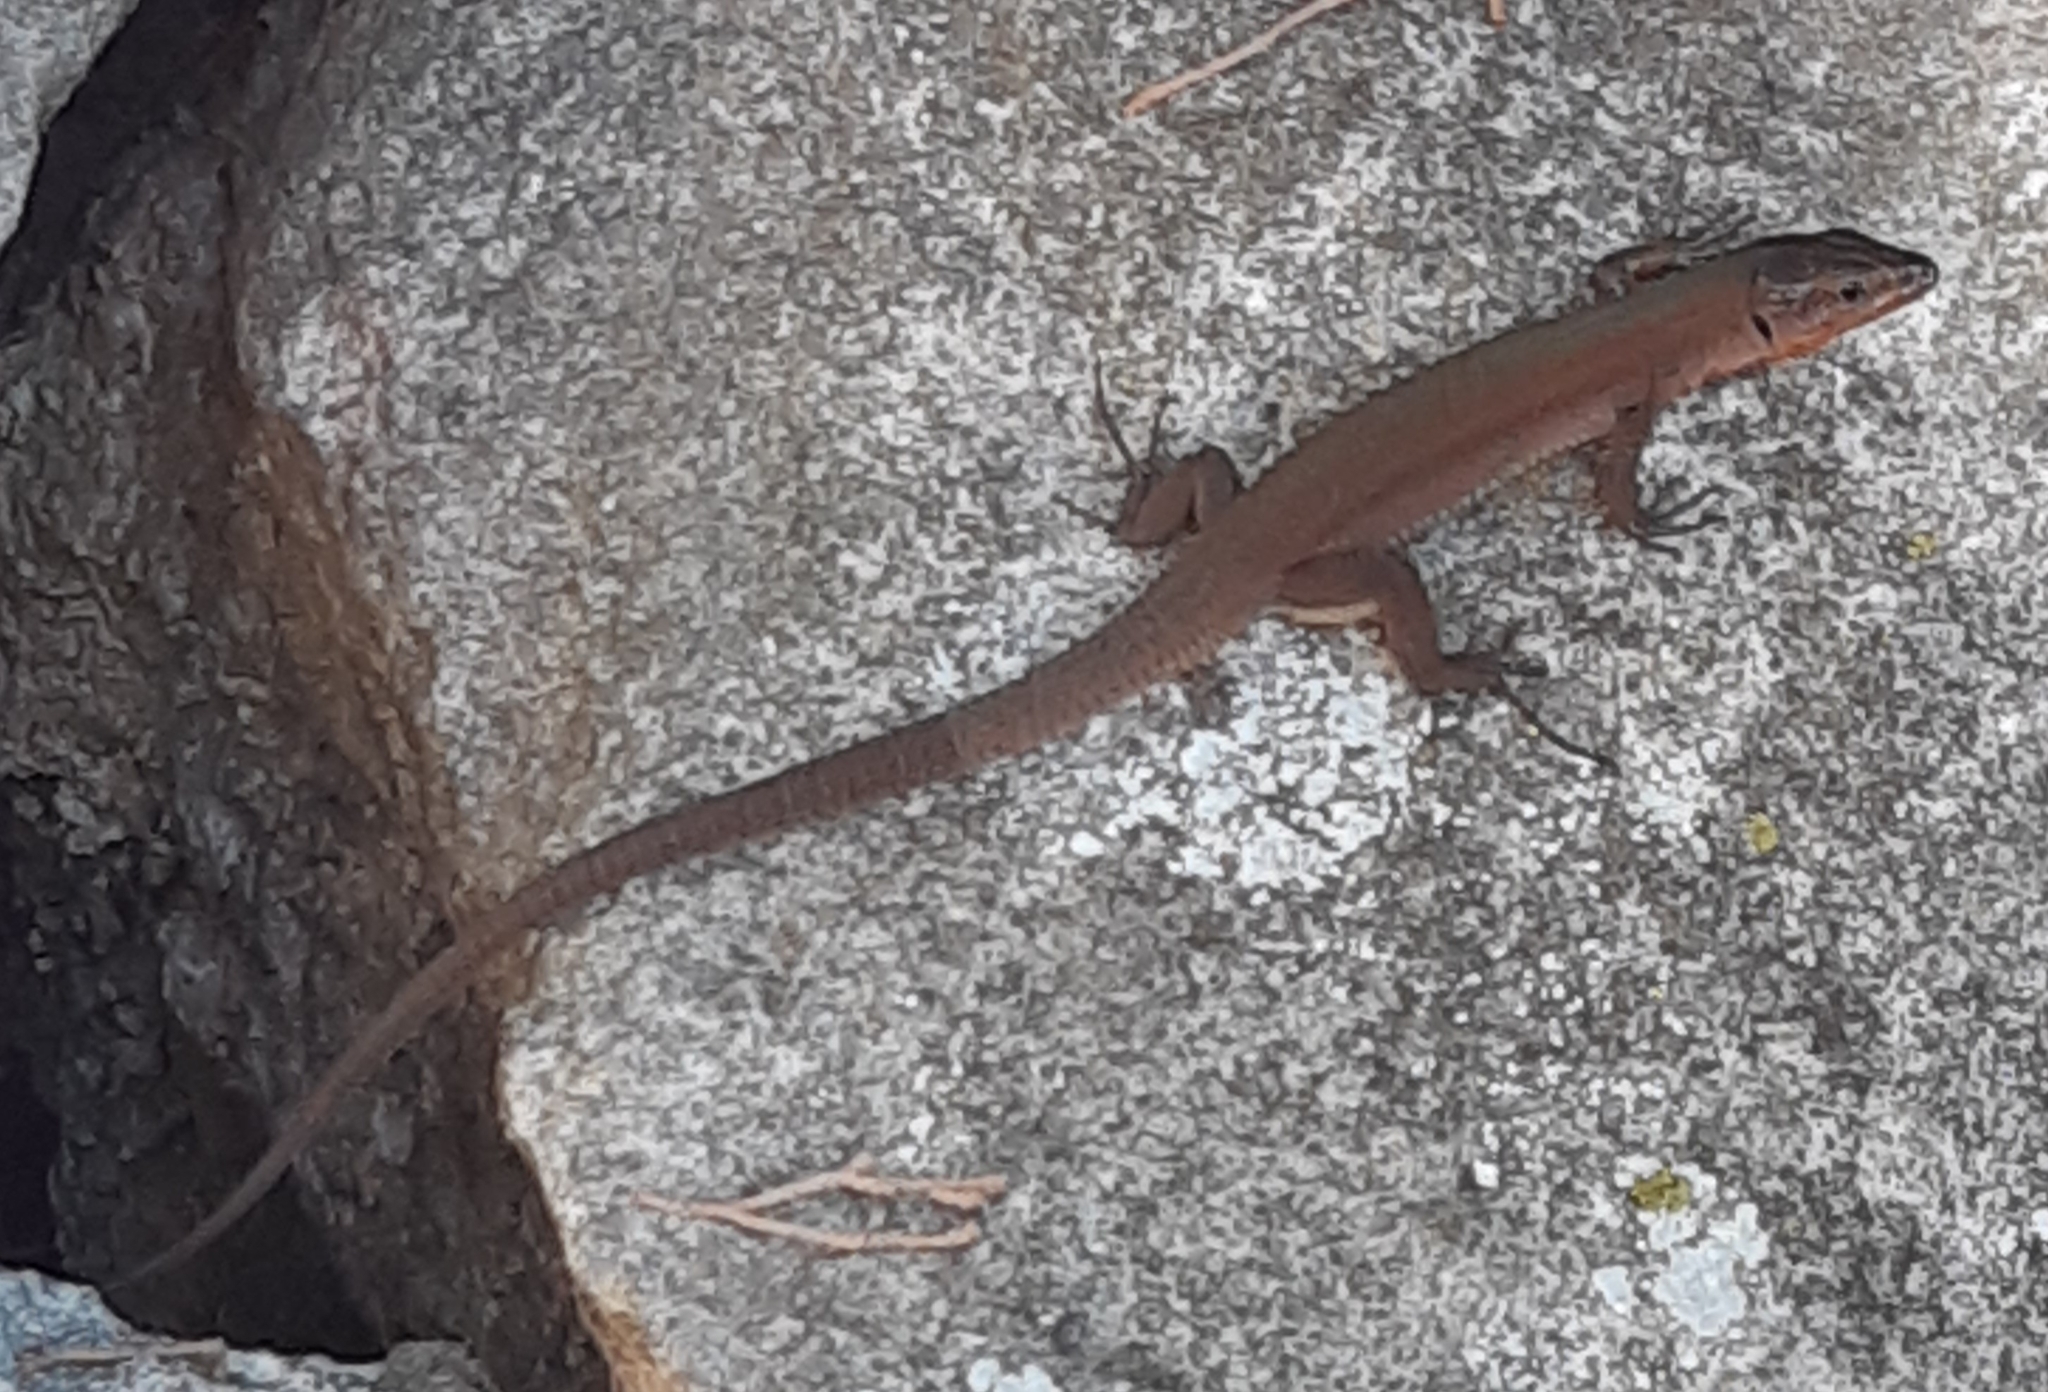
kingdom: Animalia
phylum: Chordata
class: Squamata
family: Lacertidae
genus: Podarcis
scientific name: Podarcis melisellensis
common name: Dalmatian wall lizard
